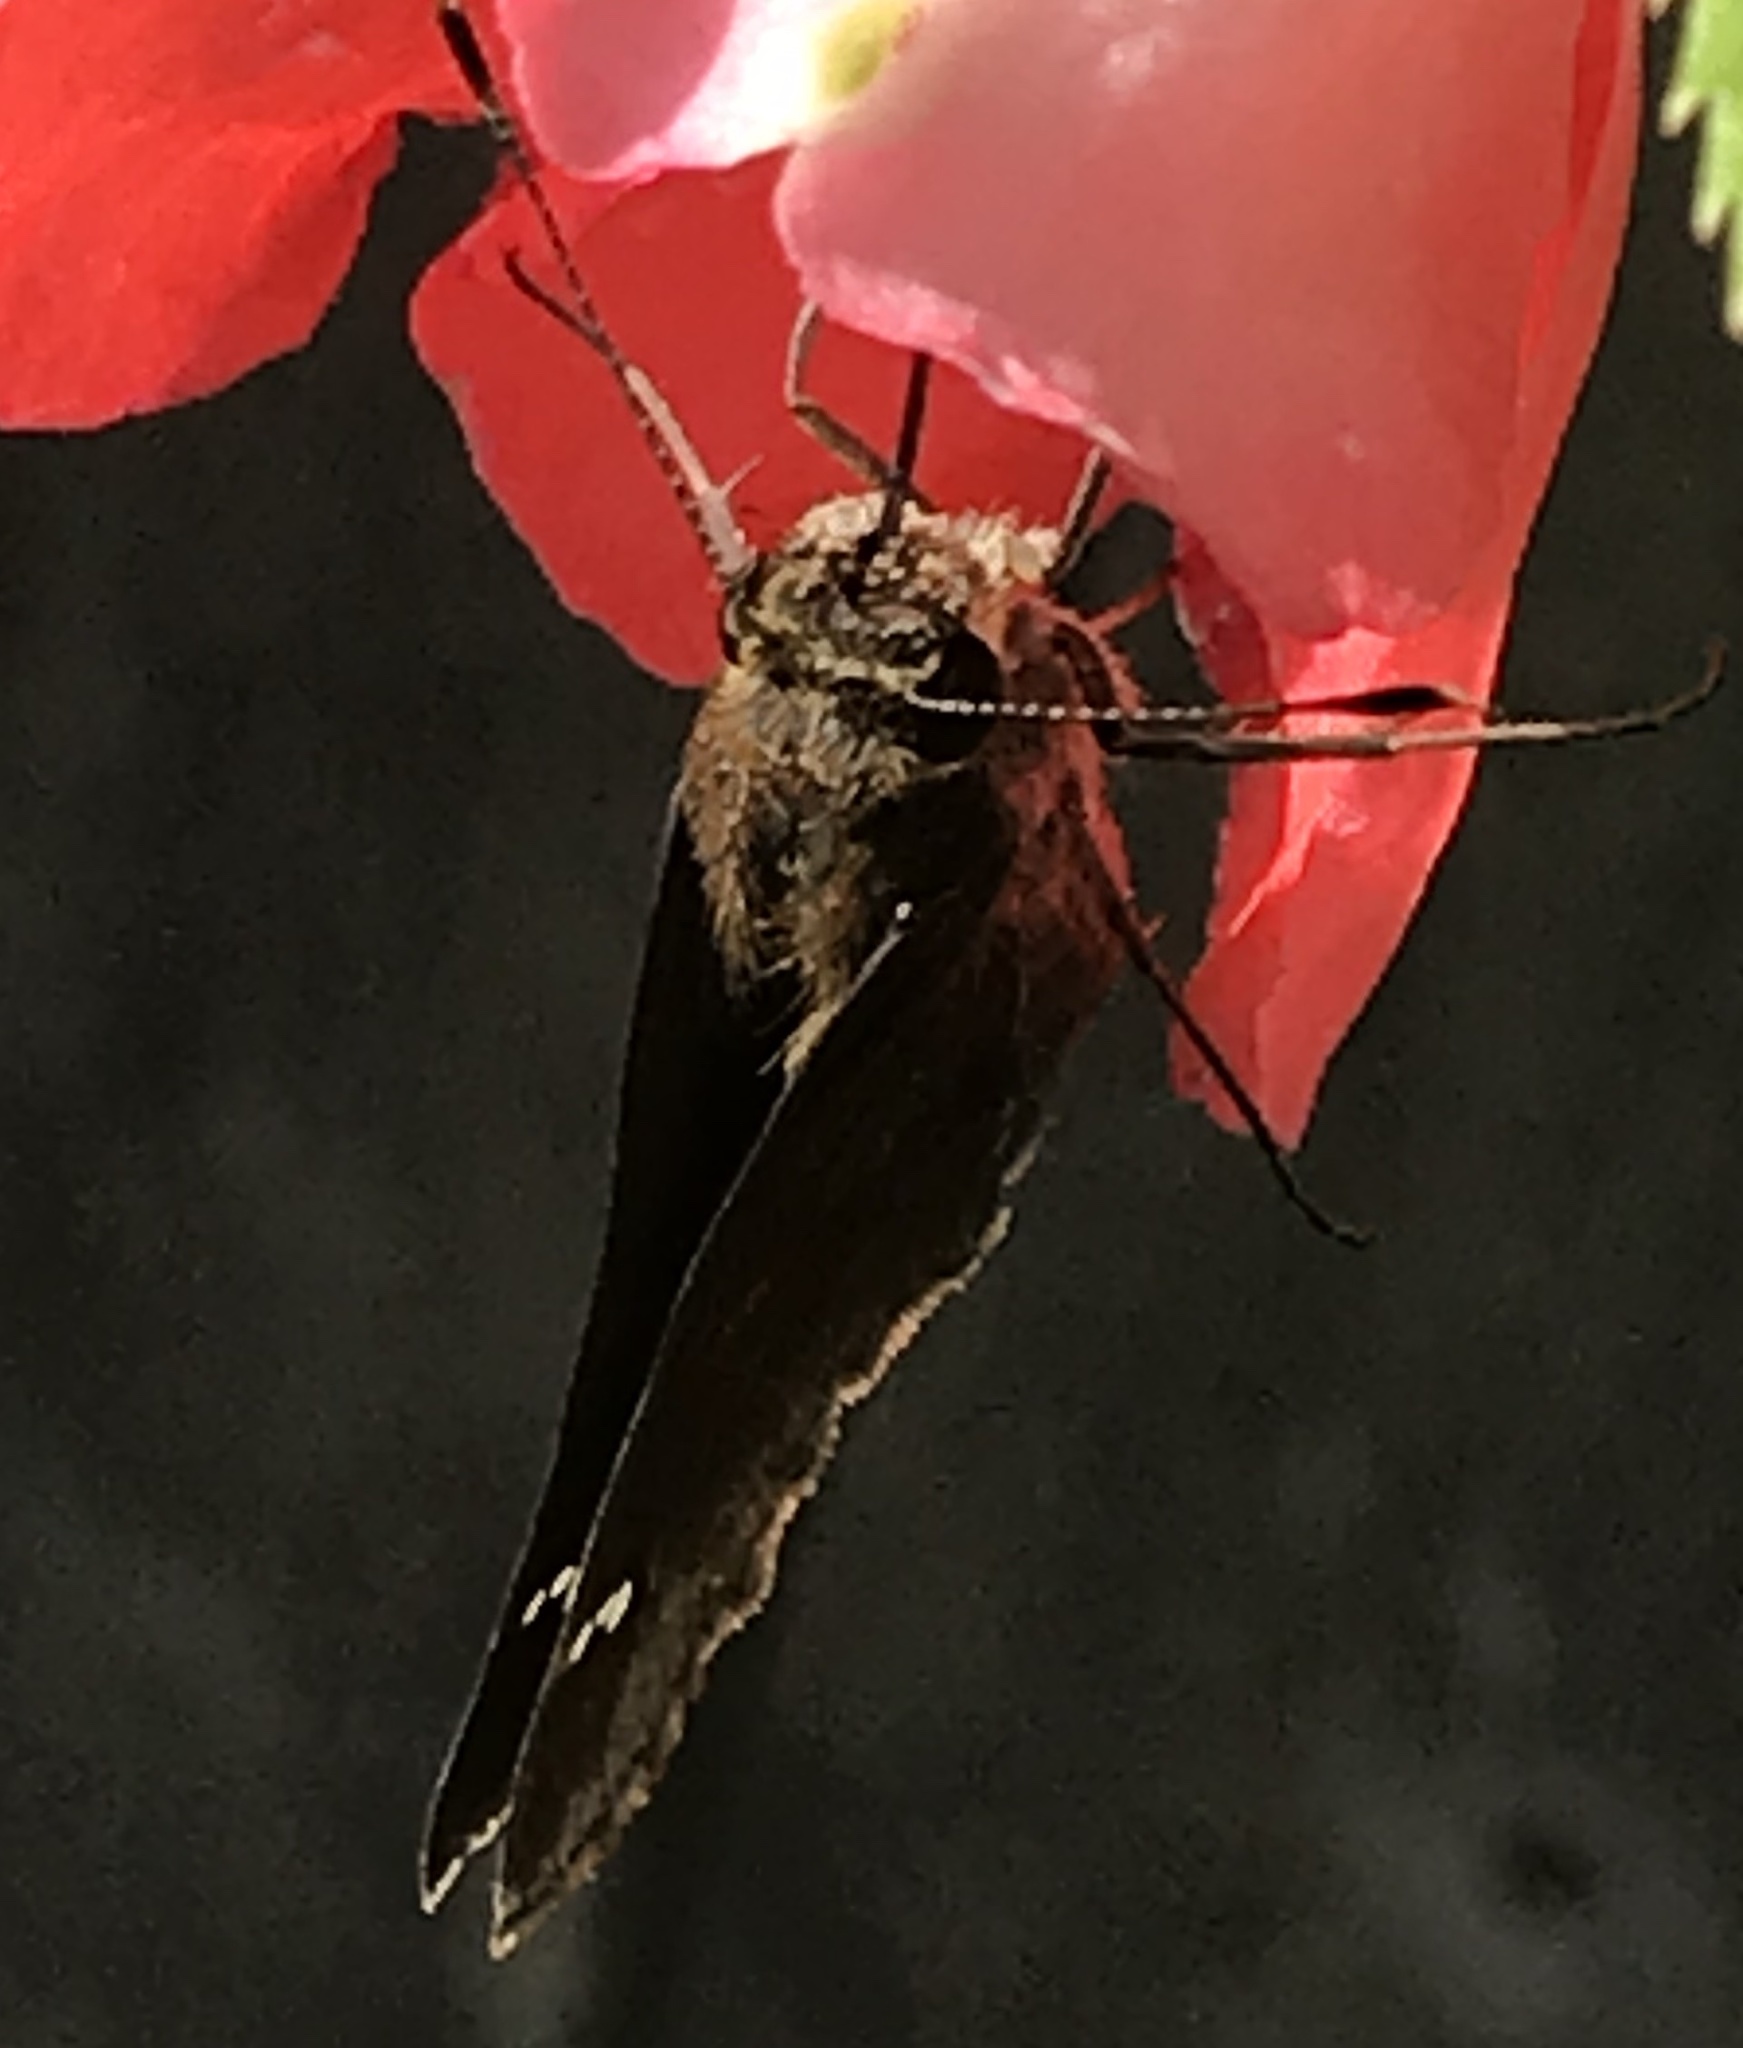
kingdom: Animalia
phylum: Arthropoda
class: Insecta
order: Lepidoptera
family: Hesperiidae
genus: Lerema
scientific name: Lerema accius
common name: Clouded skipper
